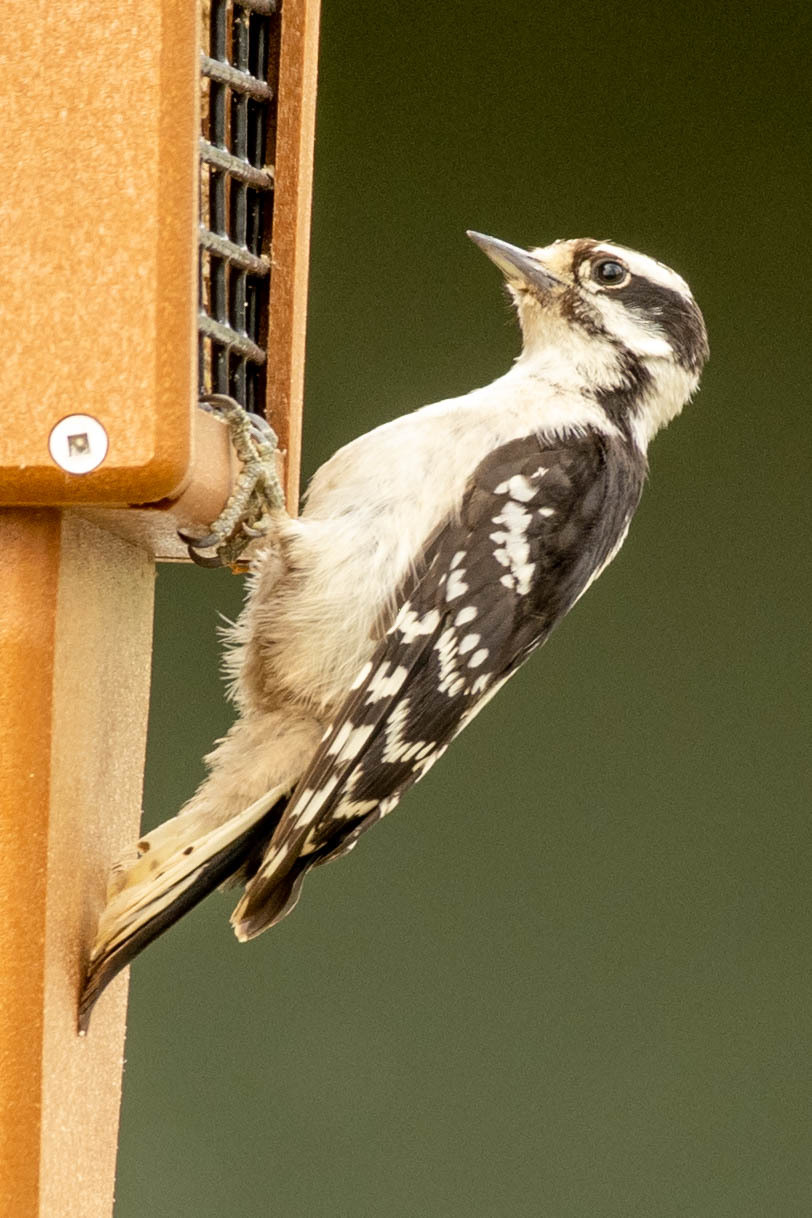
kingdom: Animalia
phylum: Chordata
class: Aves
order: Piciformes
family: Picidae
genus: Dryobates
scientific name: Dryobates pubescens
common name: Downy woodpecker
